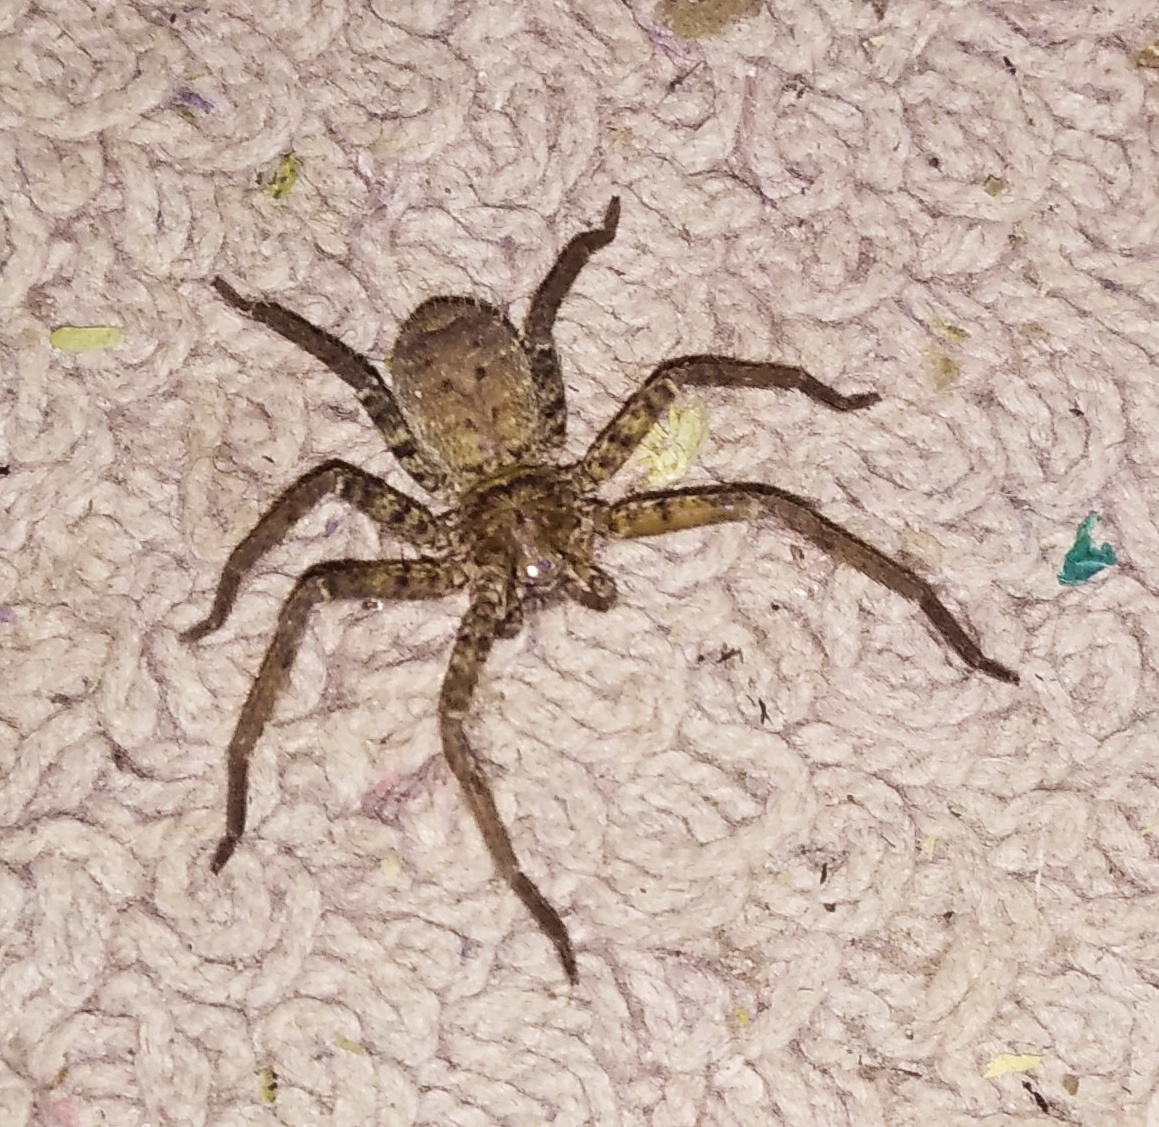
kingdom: Animalia
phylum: Arthropoda
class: Arachnida
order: Araneae
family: Sparassidae
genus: Heteropoda
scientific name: Heteropoda venatoria
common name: Huntsman spider
